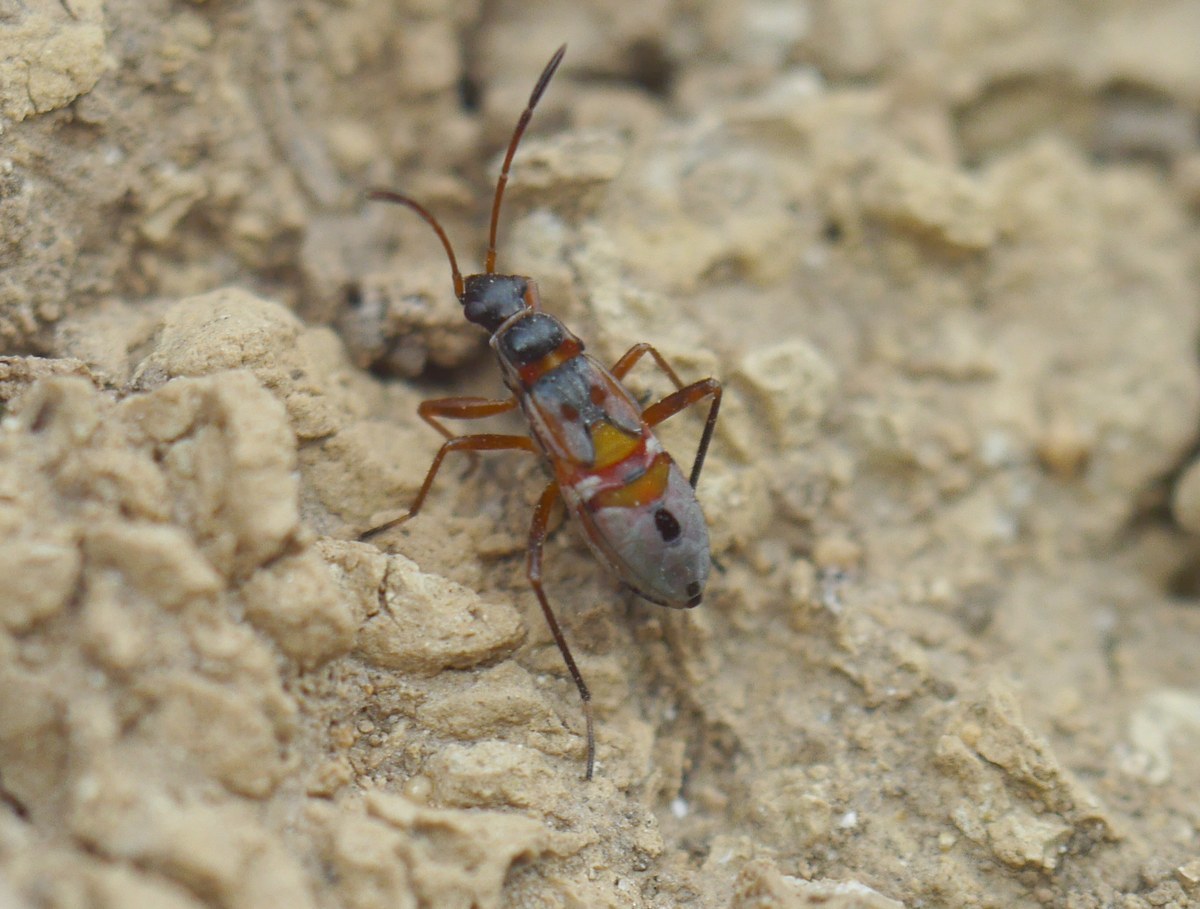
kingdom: Animalia
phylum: Arthropoda
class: Insecta
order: Hemiptera
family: Rhyparochromidae
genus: Beosus
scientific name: Beosus quadripunctatus
